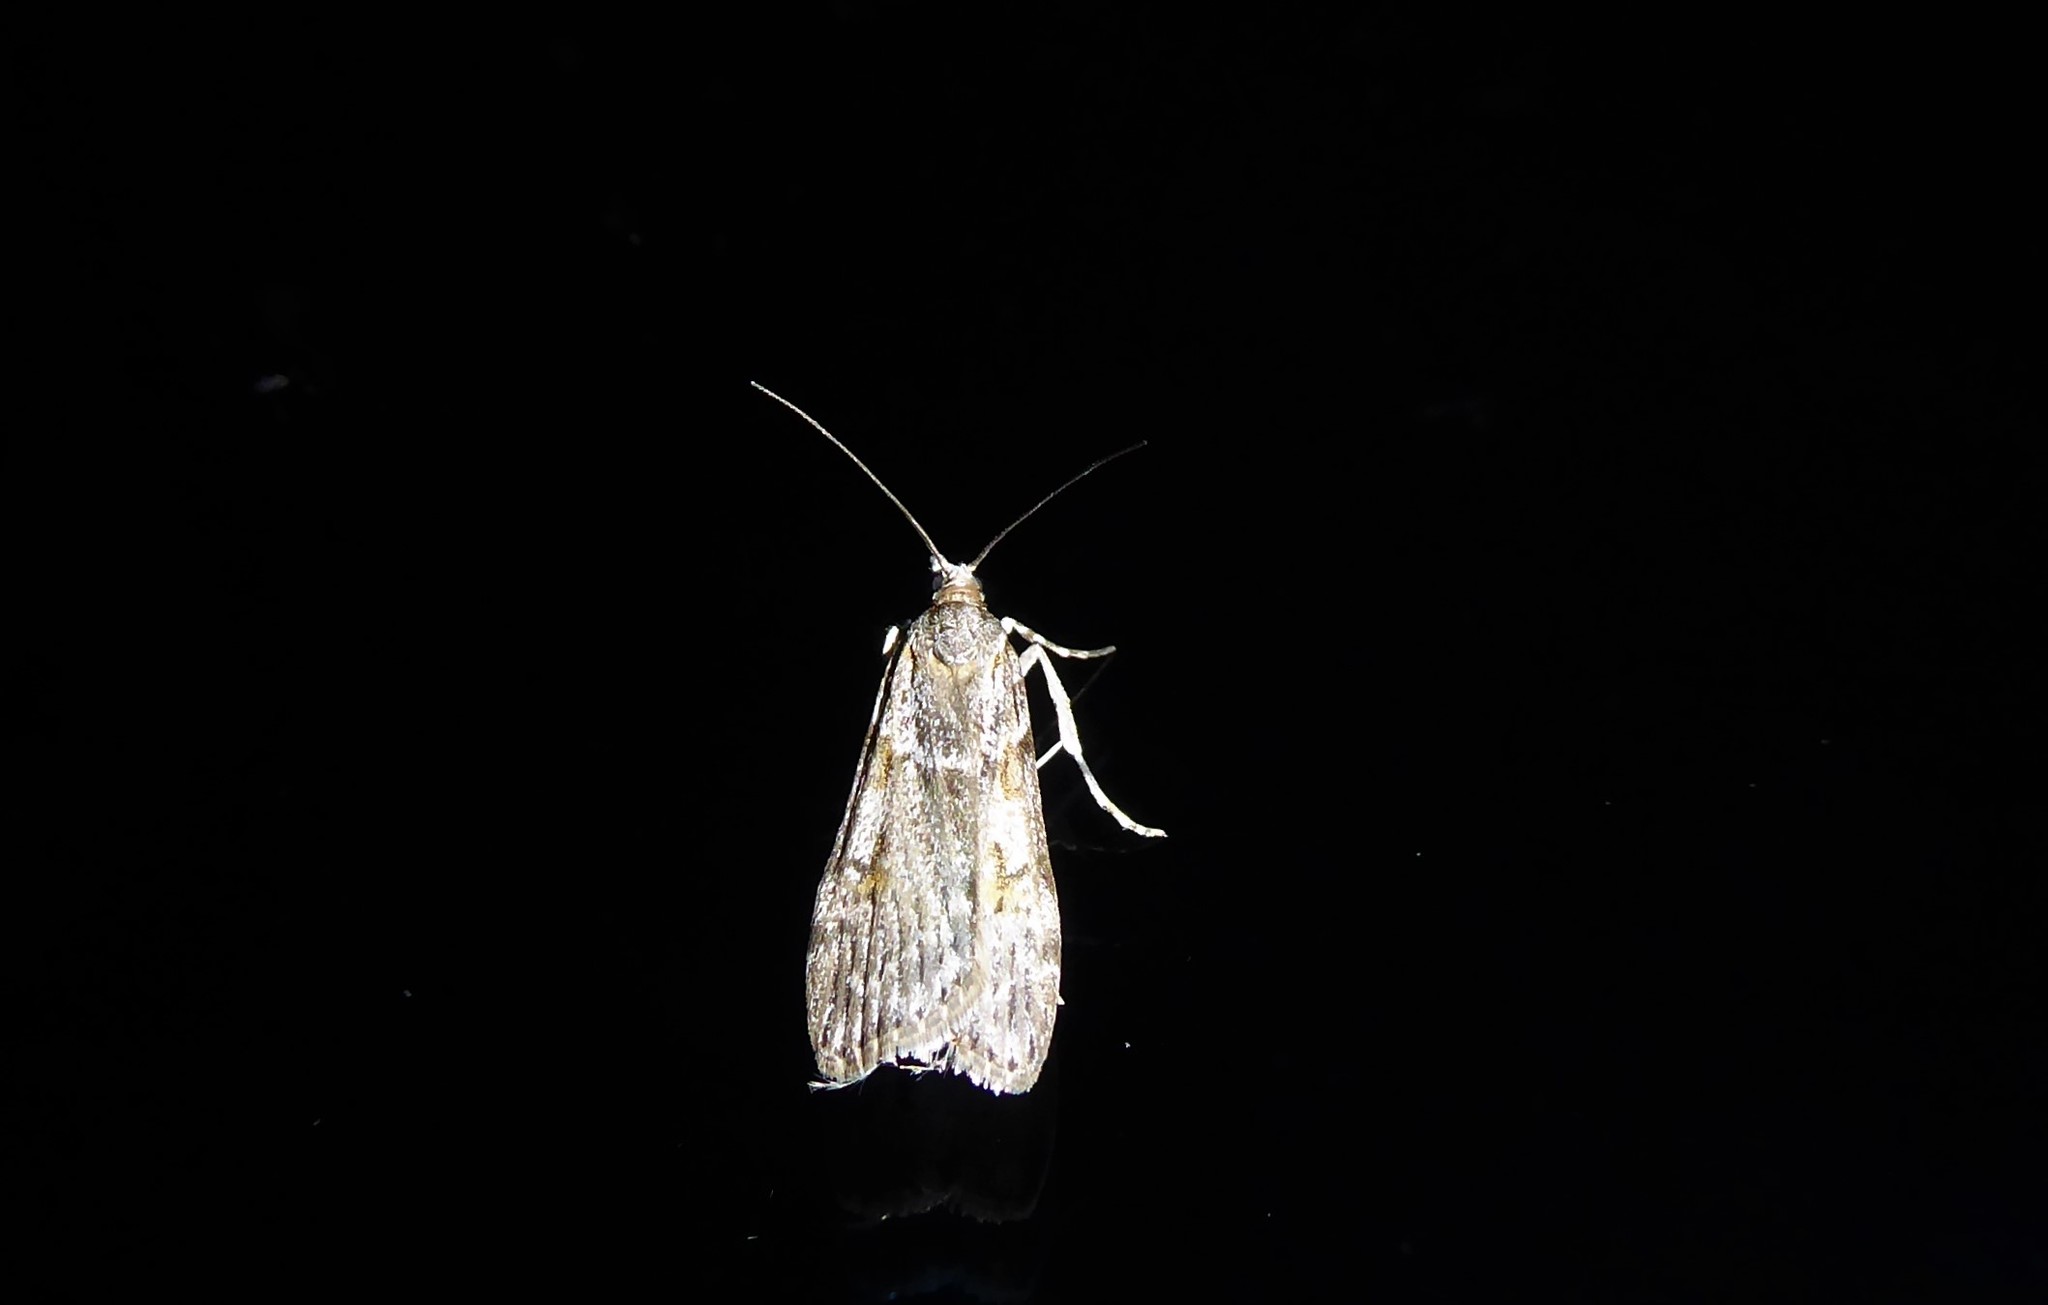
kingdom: Animalia
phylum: Arthropoda
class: Insecta
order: Lepidoptera
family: Crambidae
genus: Scoparia
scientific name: Scoparia halopis
